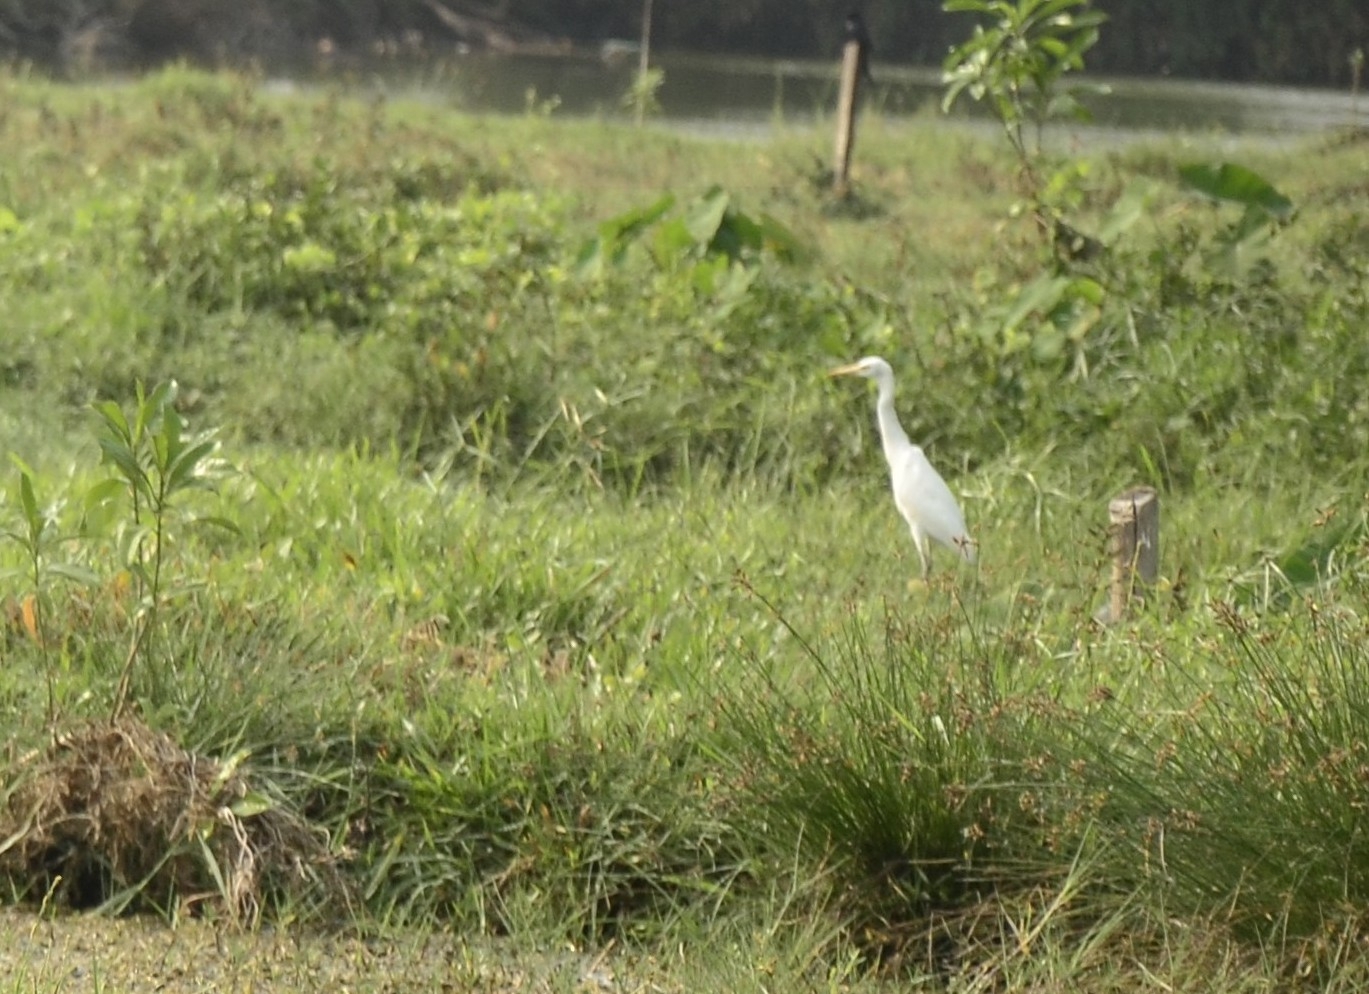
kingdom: Animalia
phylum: Chordata
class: Aves
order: Pelecaniformes
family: Ardeidae
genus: Bubulcus
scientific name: Bubulcus coromandus
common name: Eastern cattle egret
